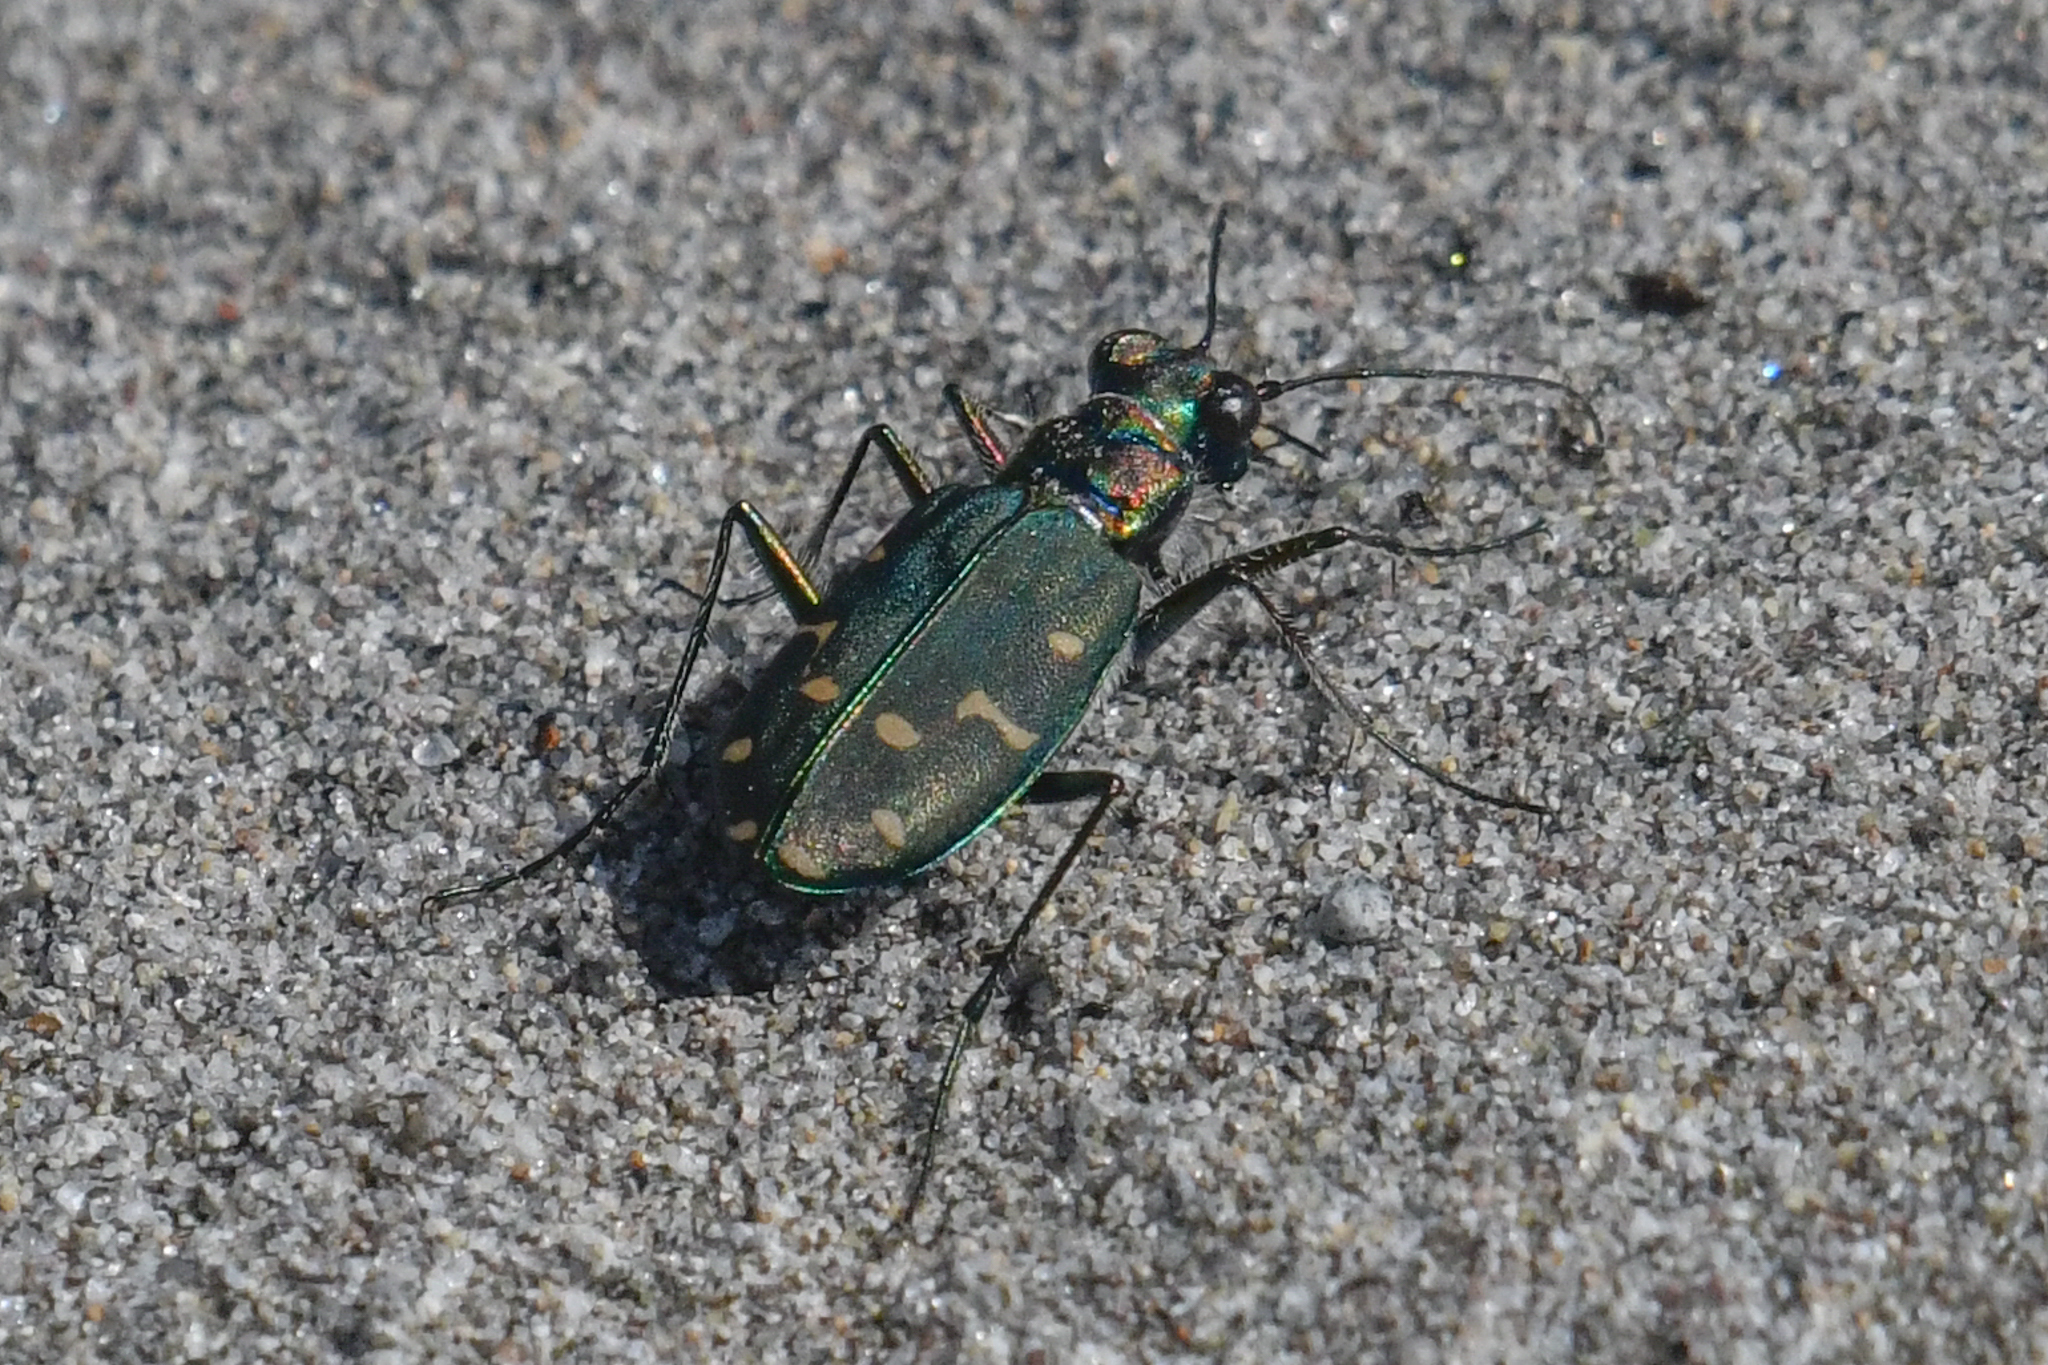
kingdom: Animalia
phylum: Arthropoda
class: Insecta
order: Coleoptera
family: Carabidae
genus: Cicindela
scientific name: Cicindela oregona
